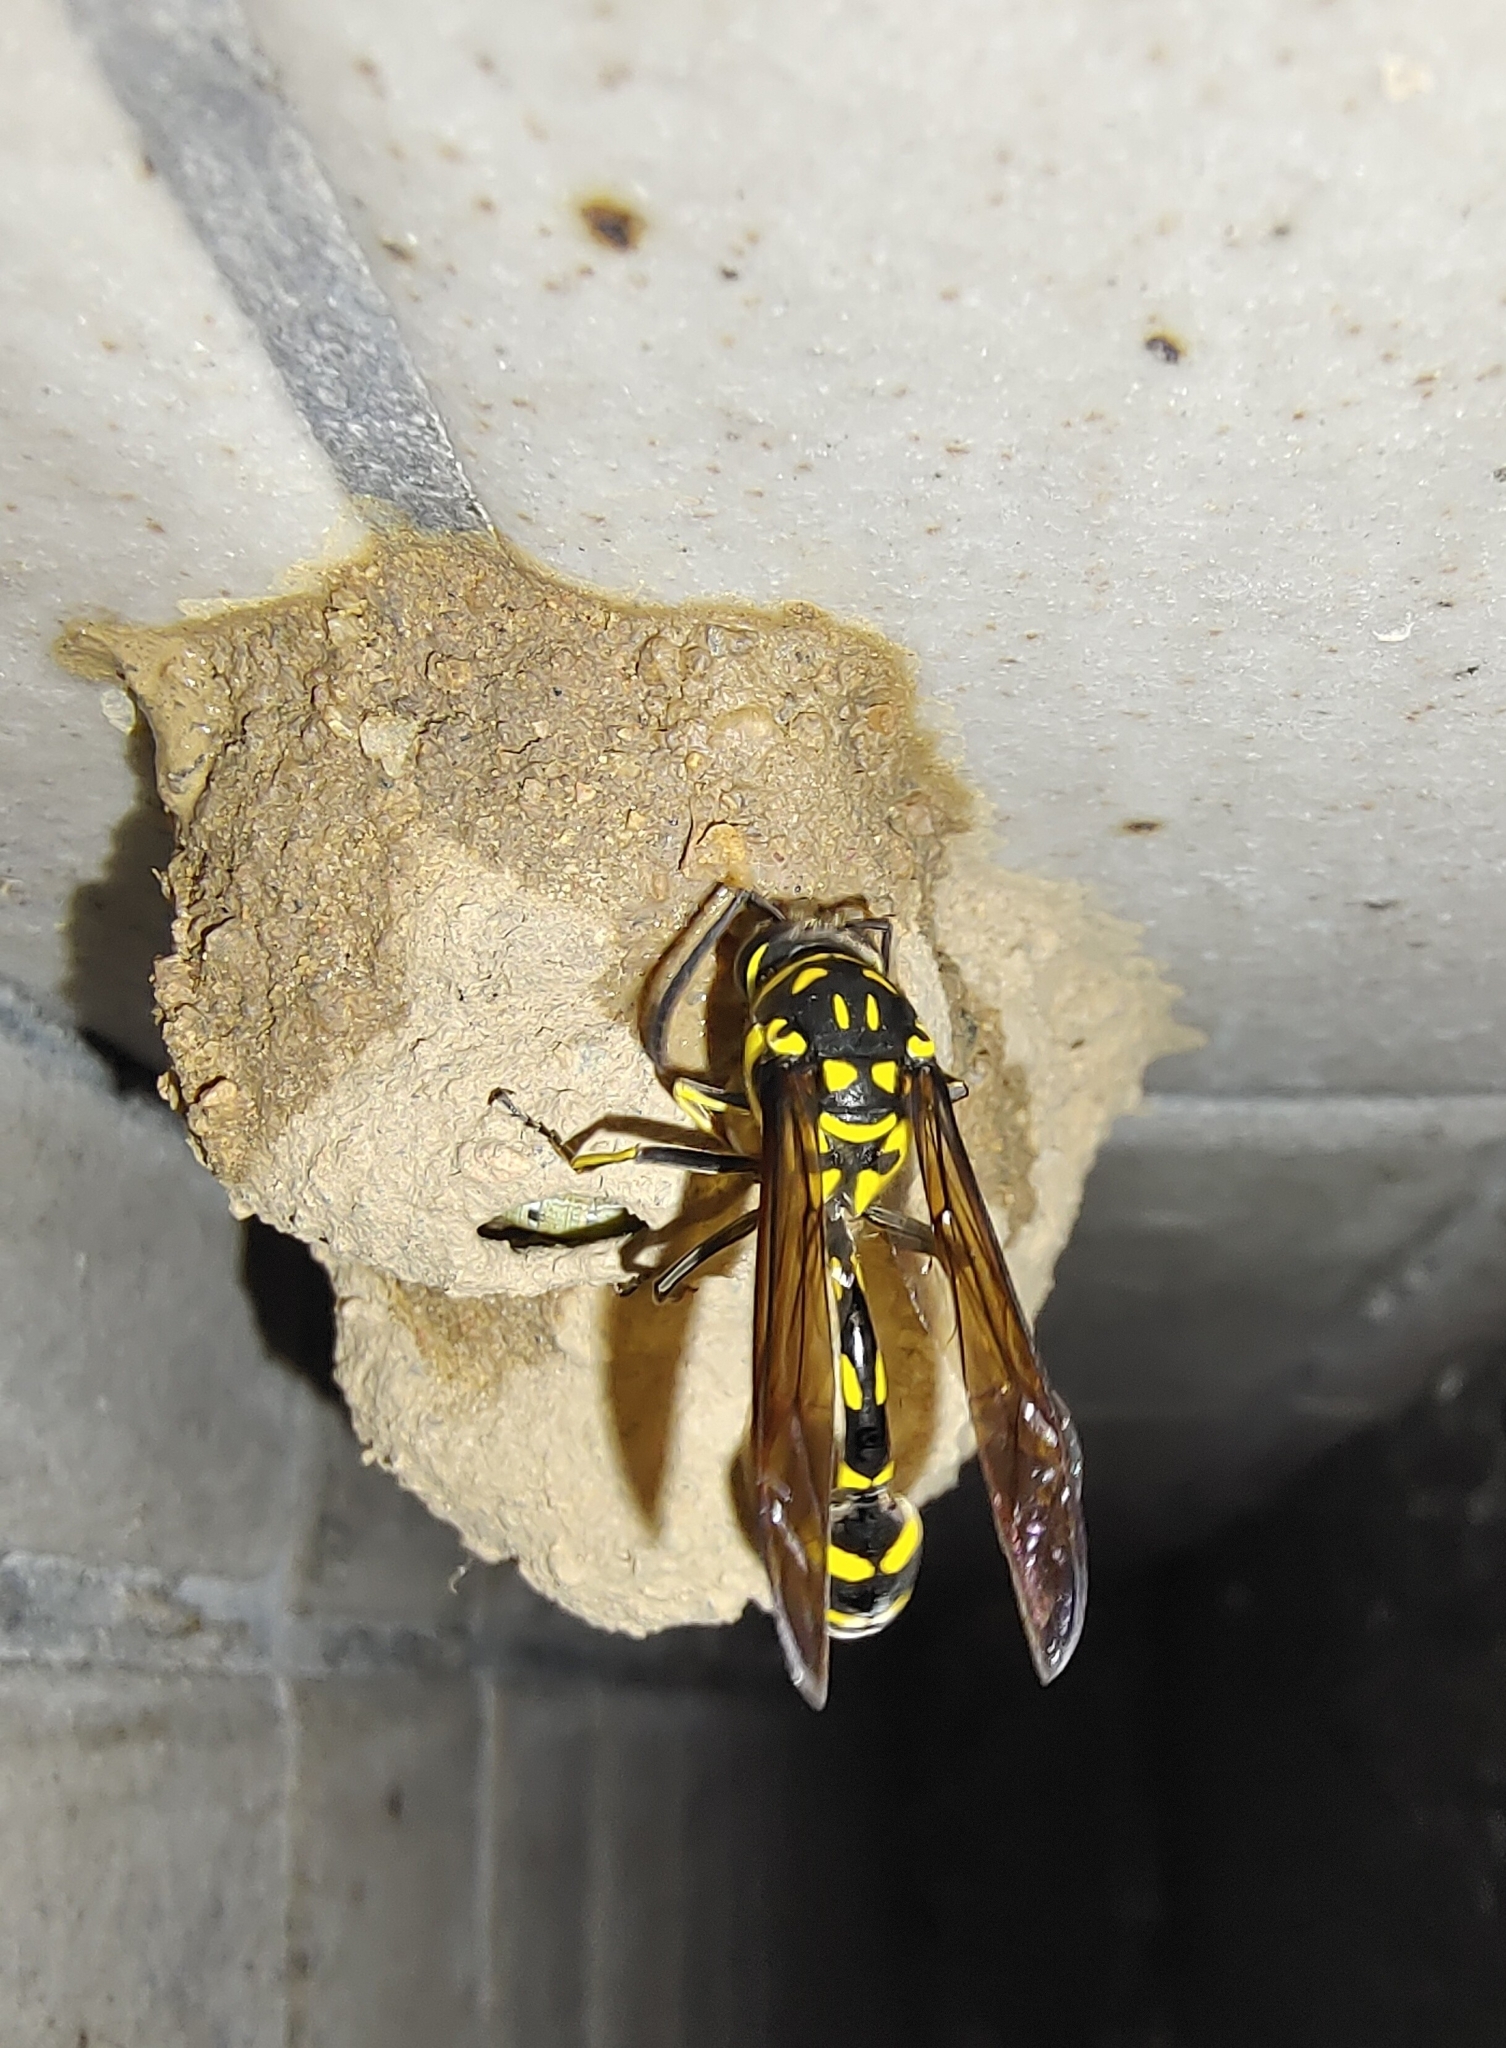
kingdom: Animalia
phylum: Arthropoda
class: Insecta
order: Hymenoptera
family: Eumenidae
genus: Phimenes
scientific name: Phimenes flavopictus
